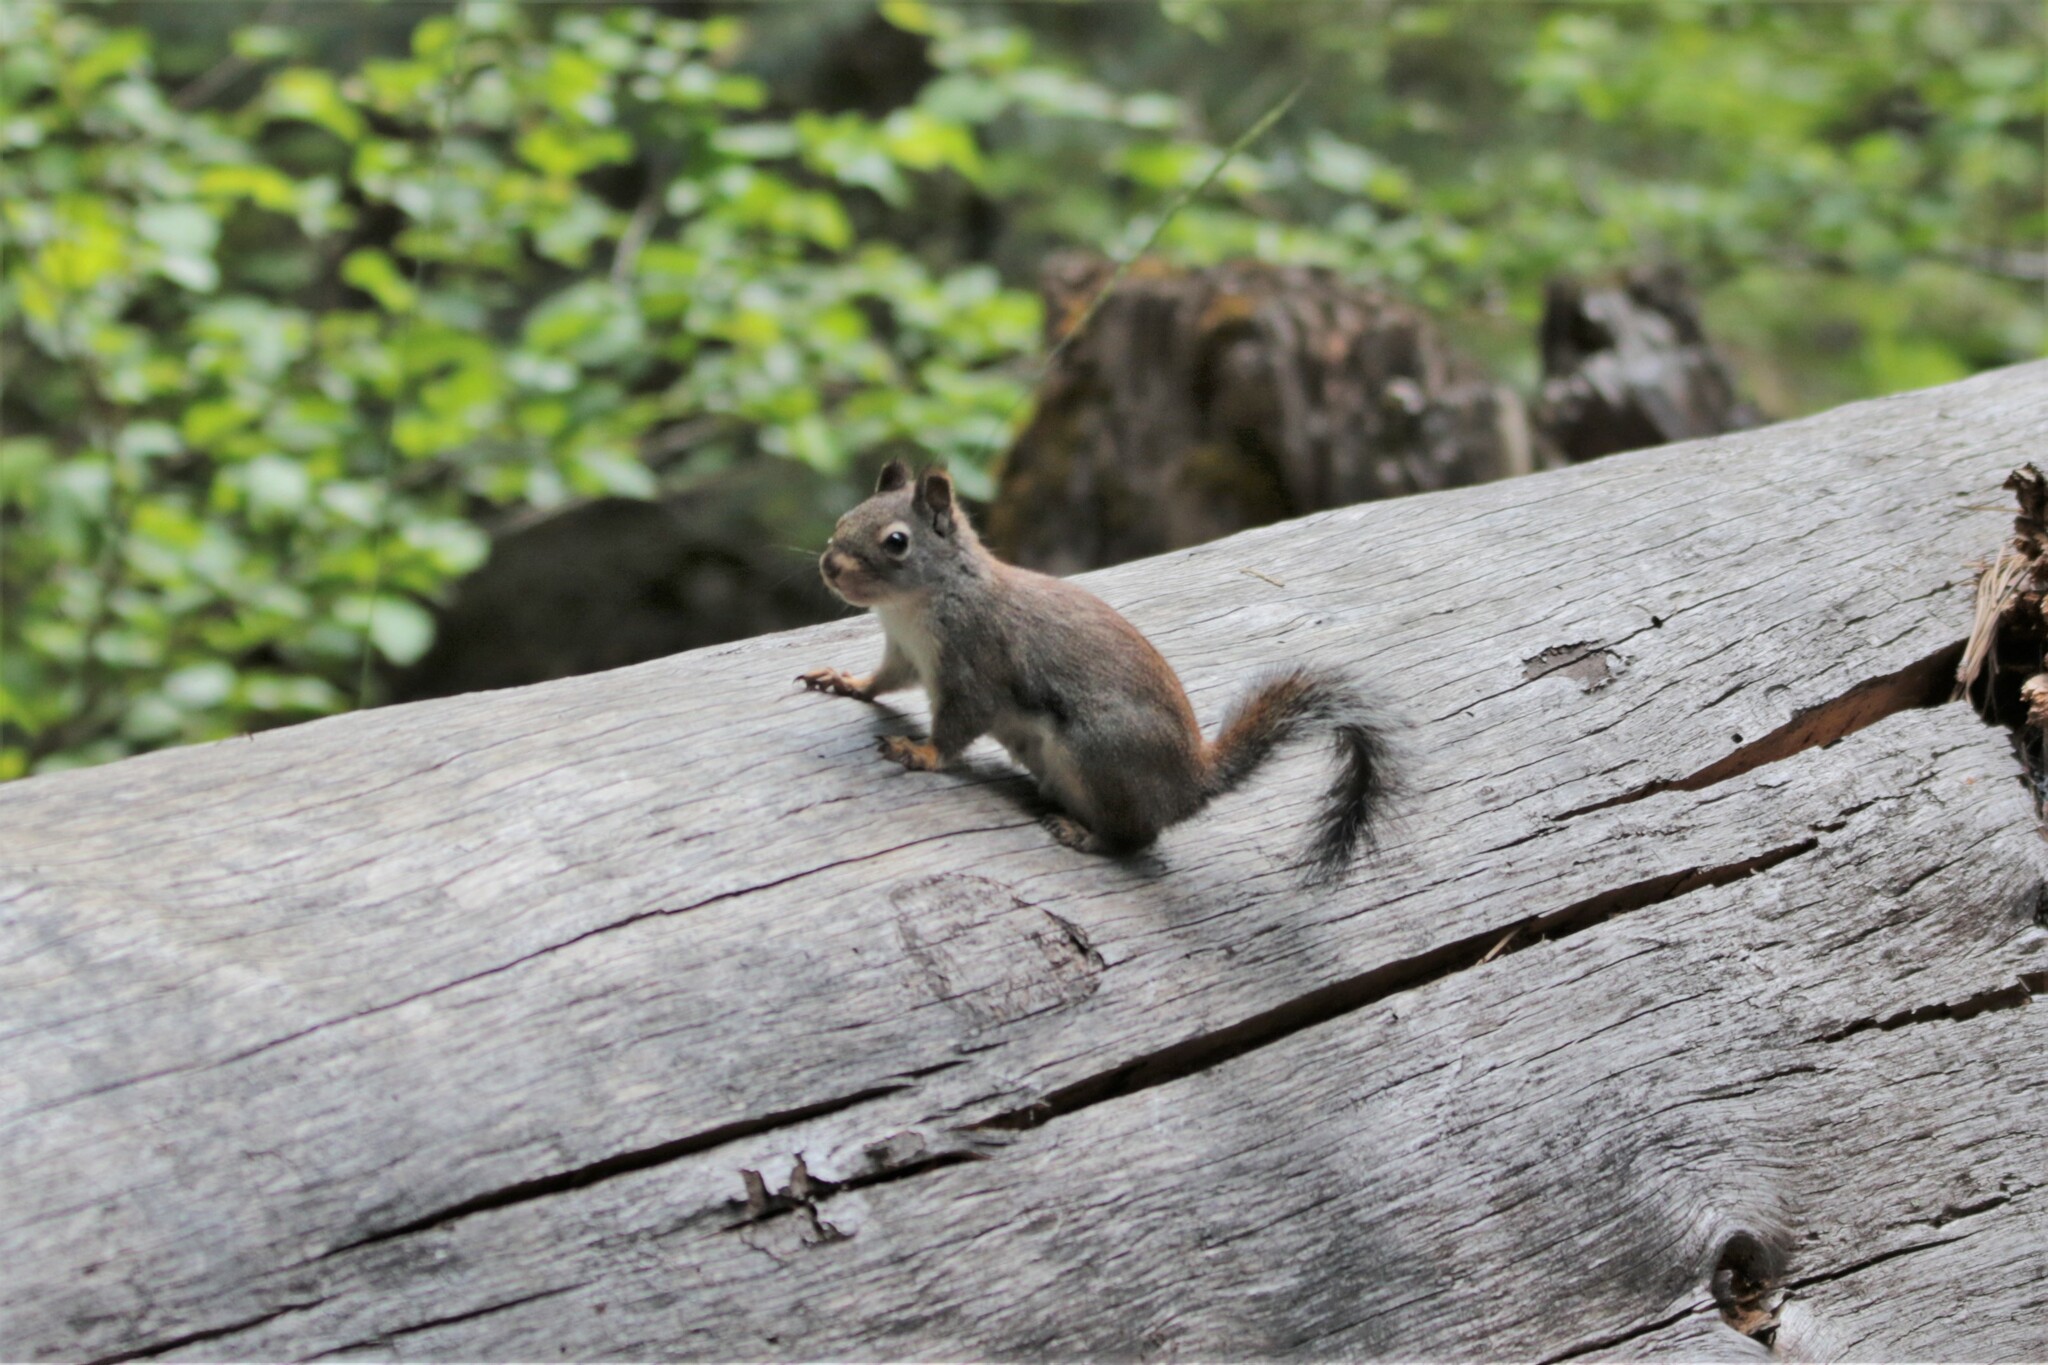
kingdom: Animalia
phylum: Chordata
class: Mammalia
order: Rodentia
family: Sciuridae
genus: Tamiasciurus
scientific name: Tamiasciurus douglasii
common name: Douglas's squirrel
